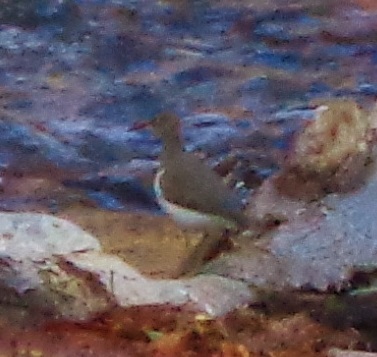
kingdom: Animalia
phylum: Chordata
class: Aves
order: Charadriiformes
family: Scolopacidae
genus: Actitis
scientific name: Actitis macularius
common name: Spotted sandpiper
